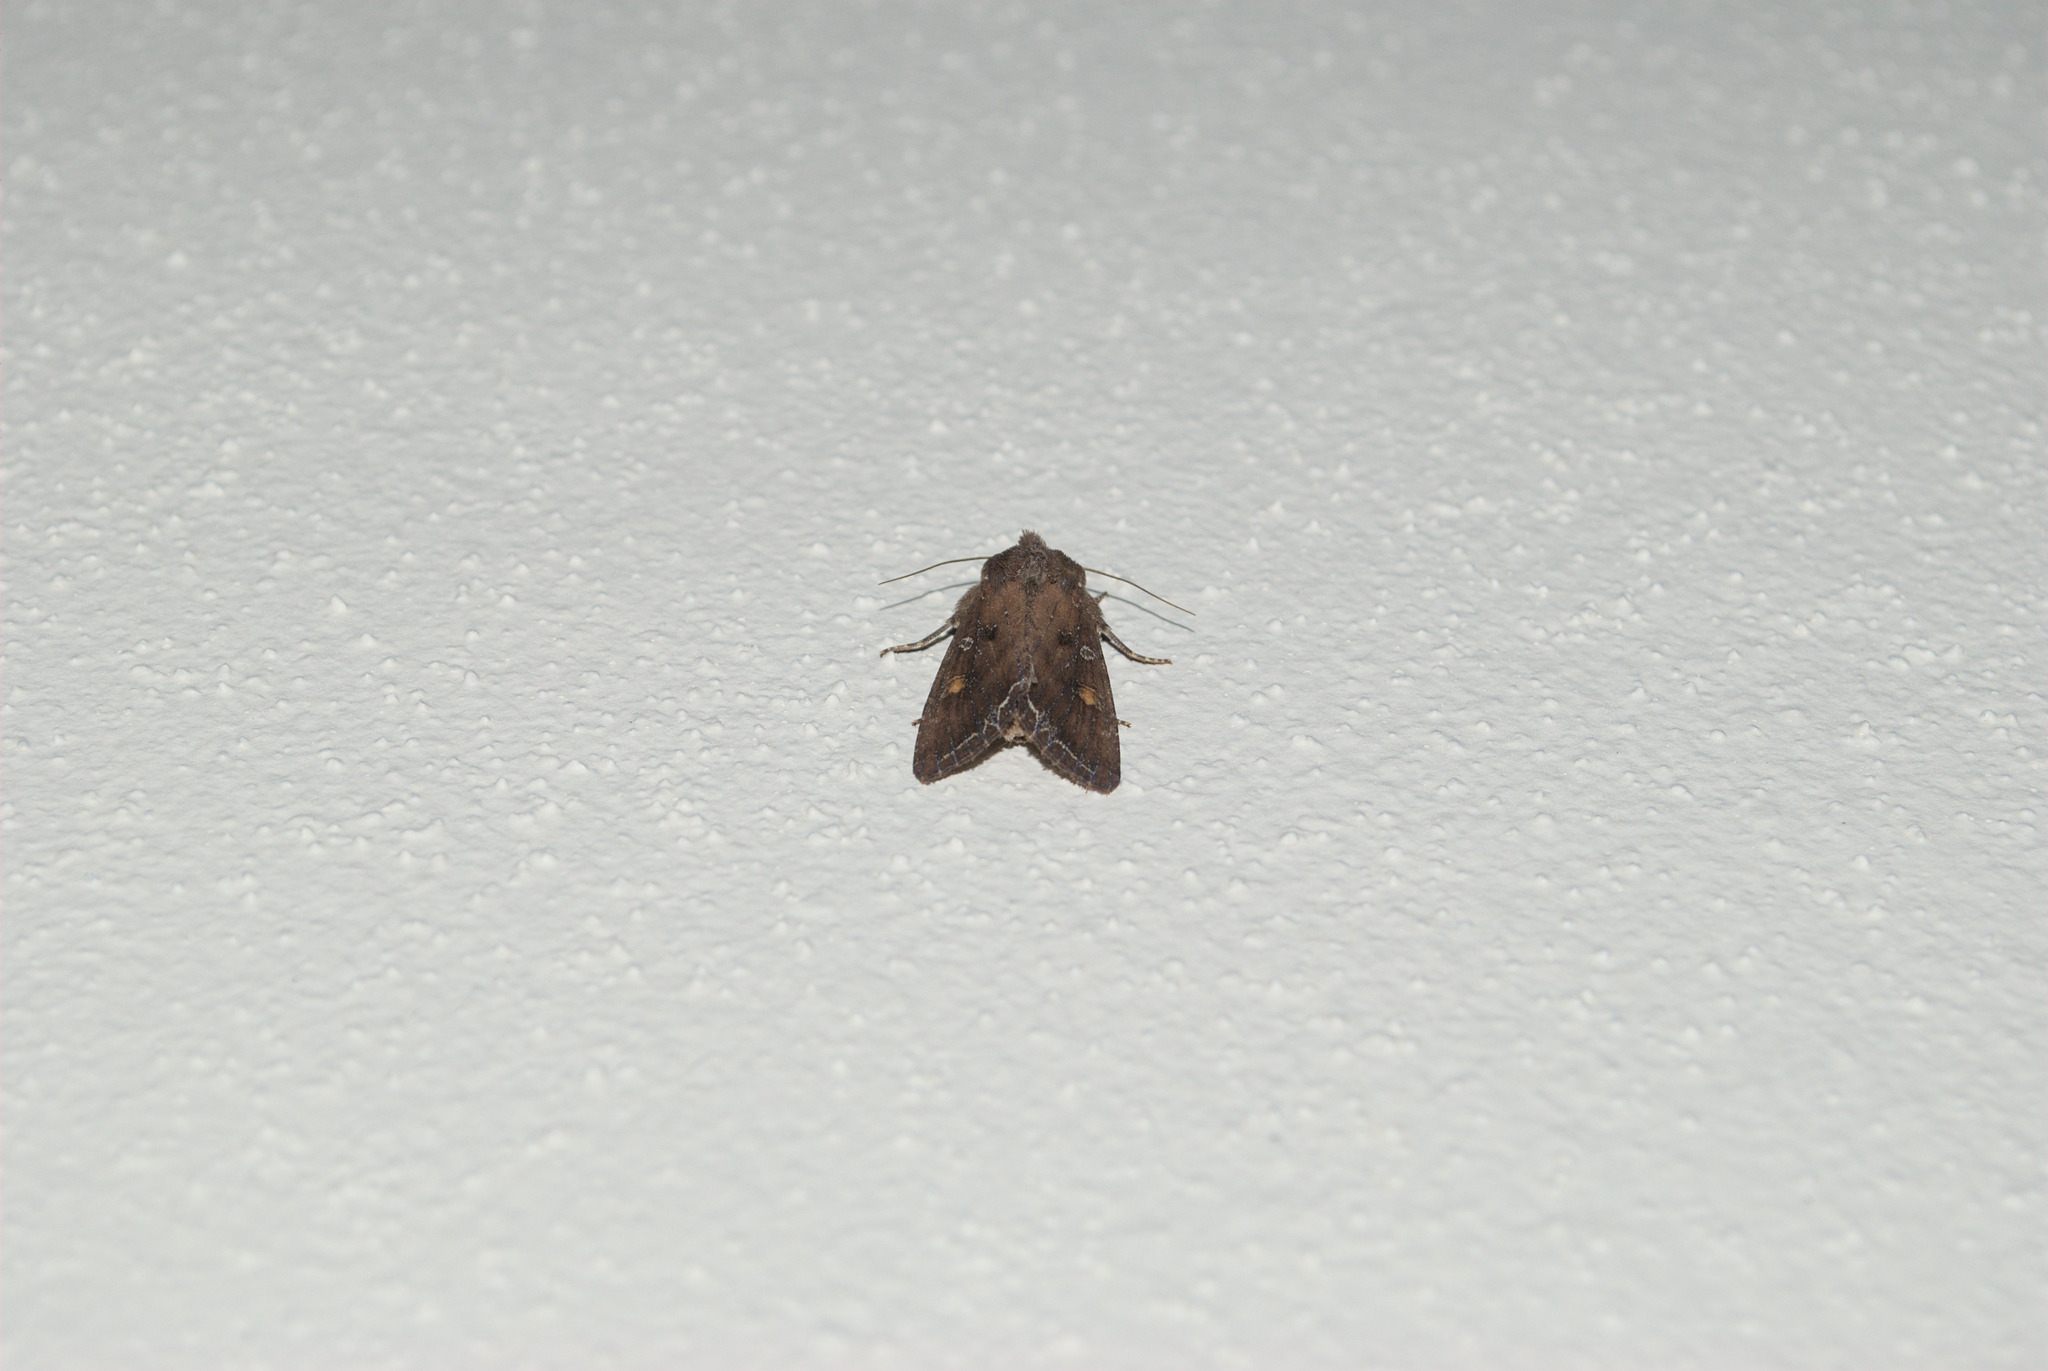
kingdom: Animalia
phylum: Arthropoda
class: Insecta
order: Lepidoptera
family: Noctuidae
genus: Lacanobia
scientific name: Lacanobia oleracea
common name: Bright-line brown-eye
